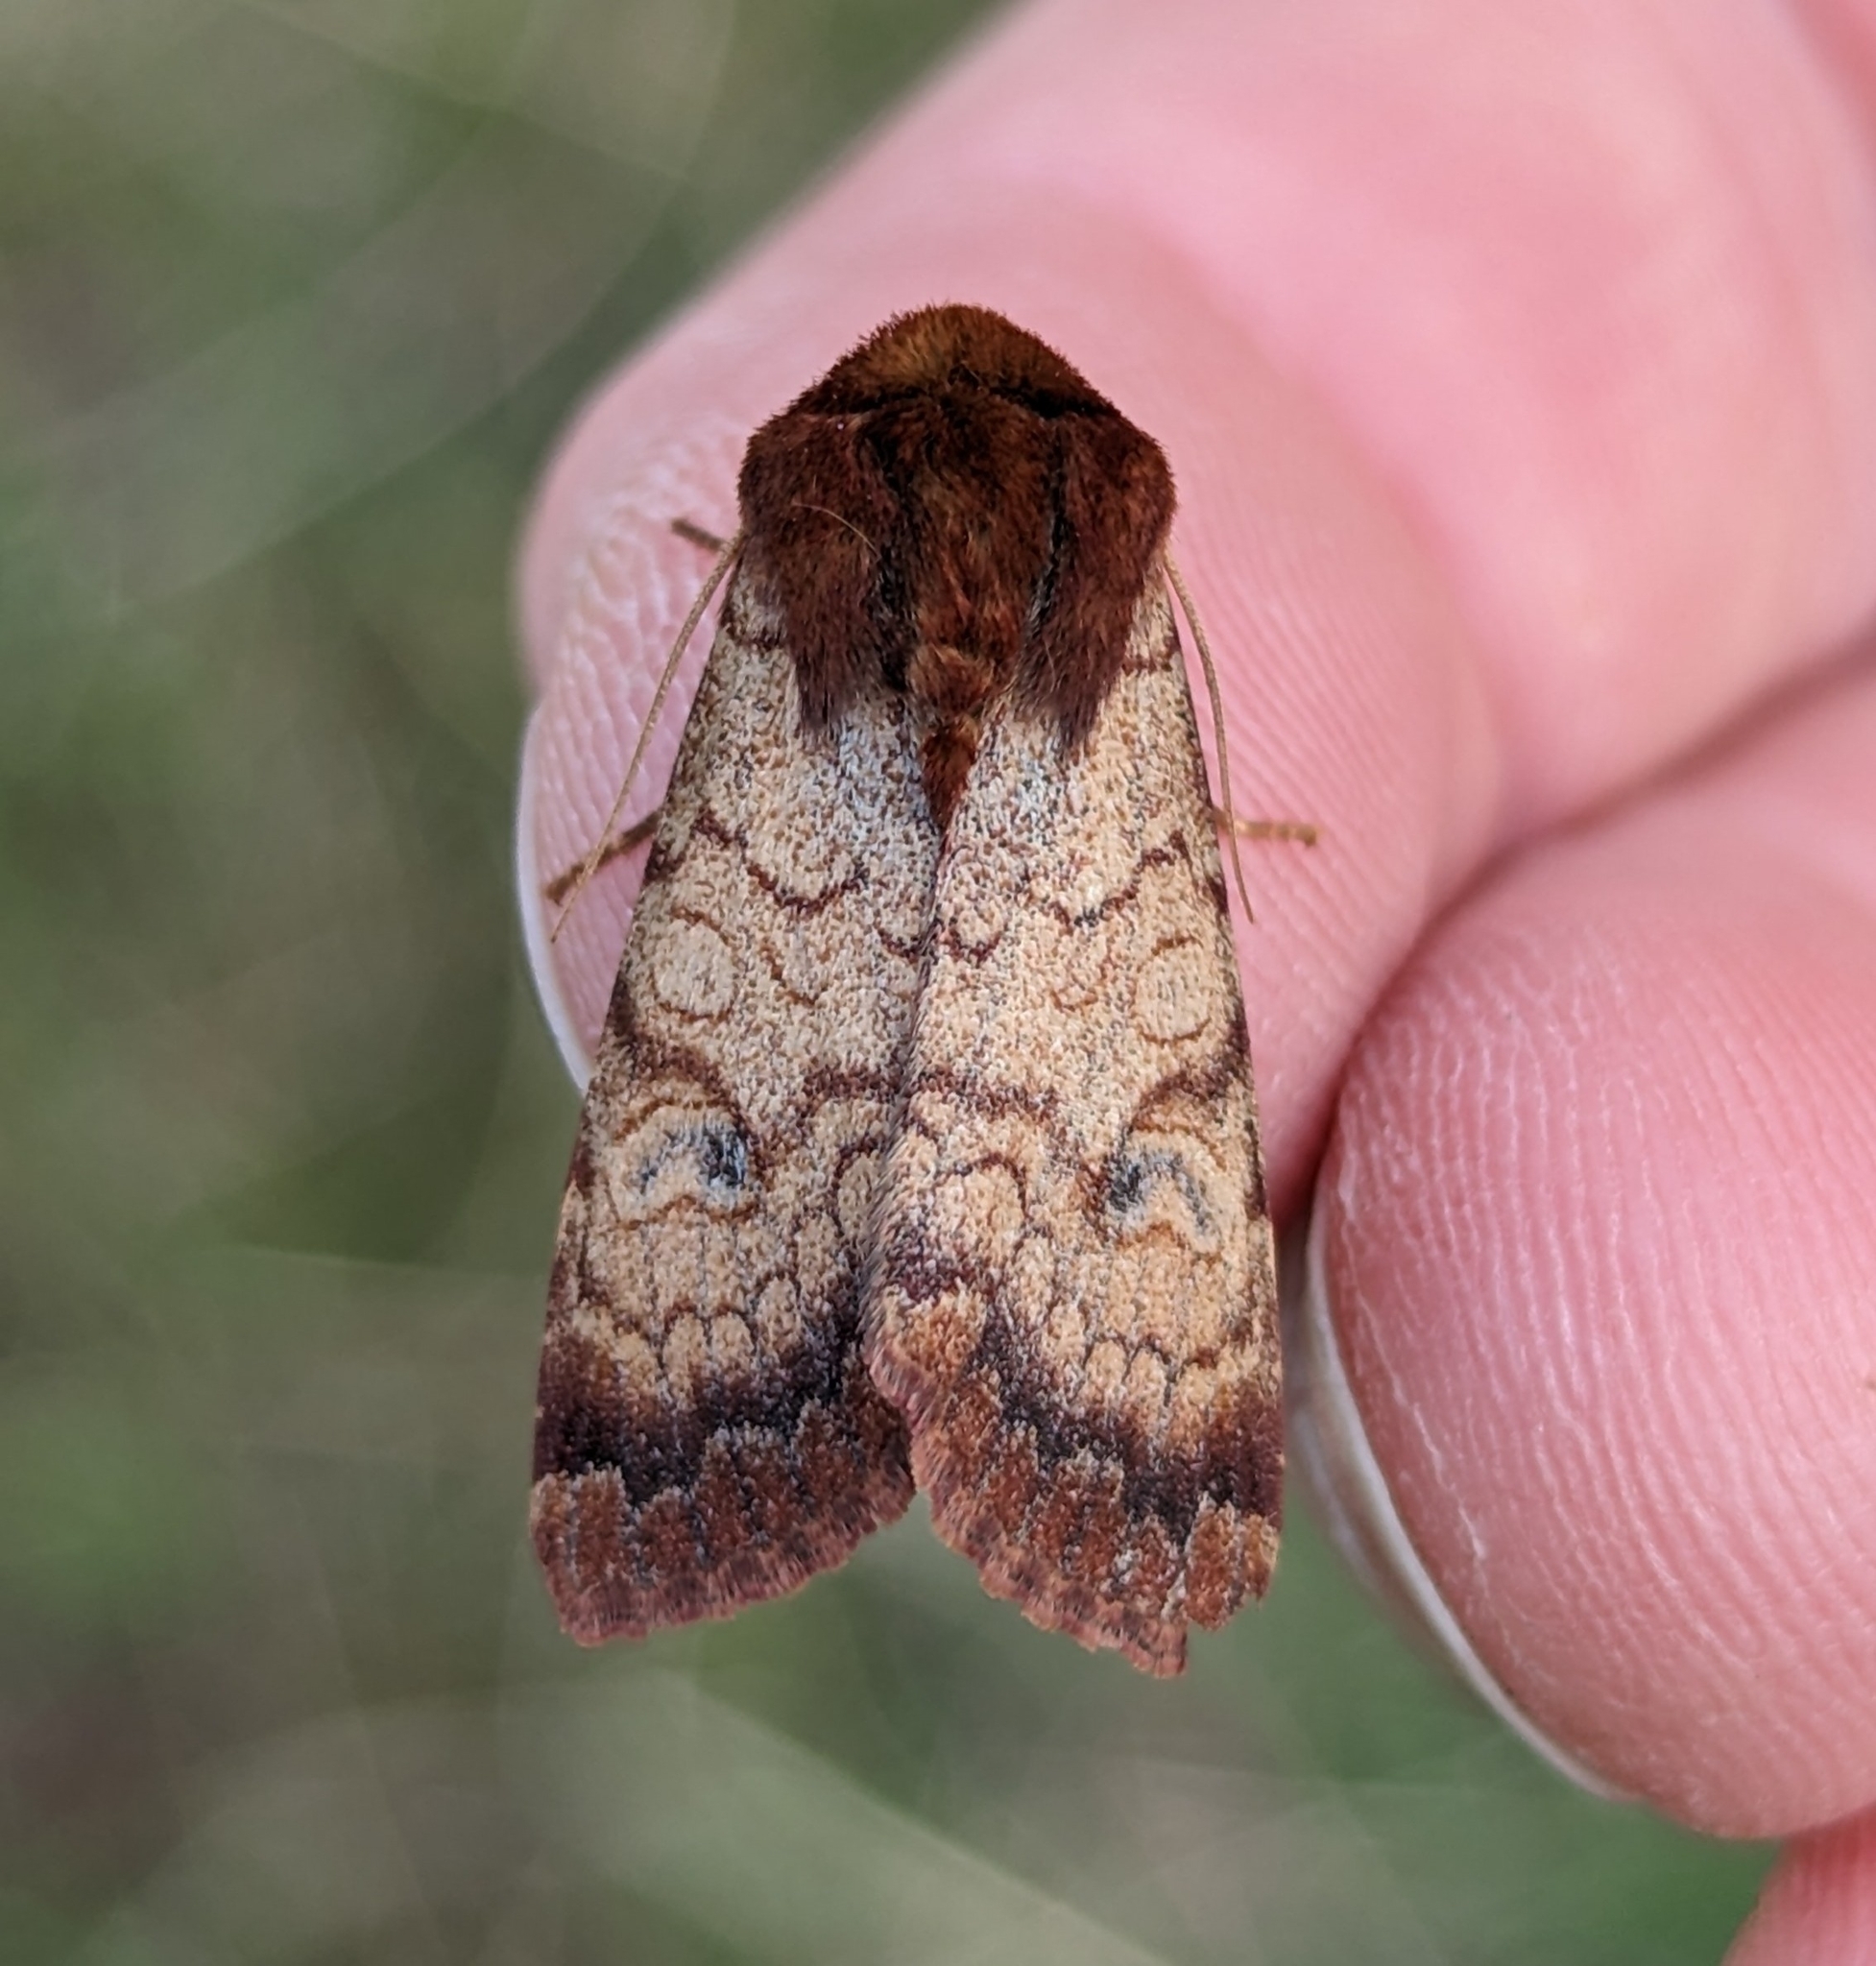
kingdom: Animalia
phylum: Arthropoda
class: Insecta
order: Lepidoptera
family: Noctuidae
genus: Sideridis
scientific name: Sideridis rosea
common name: Rosewing moth
